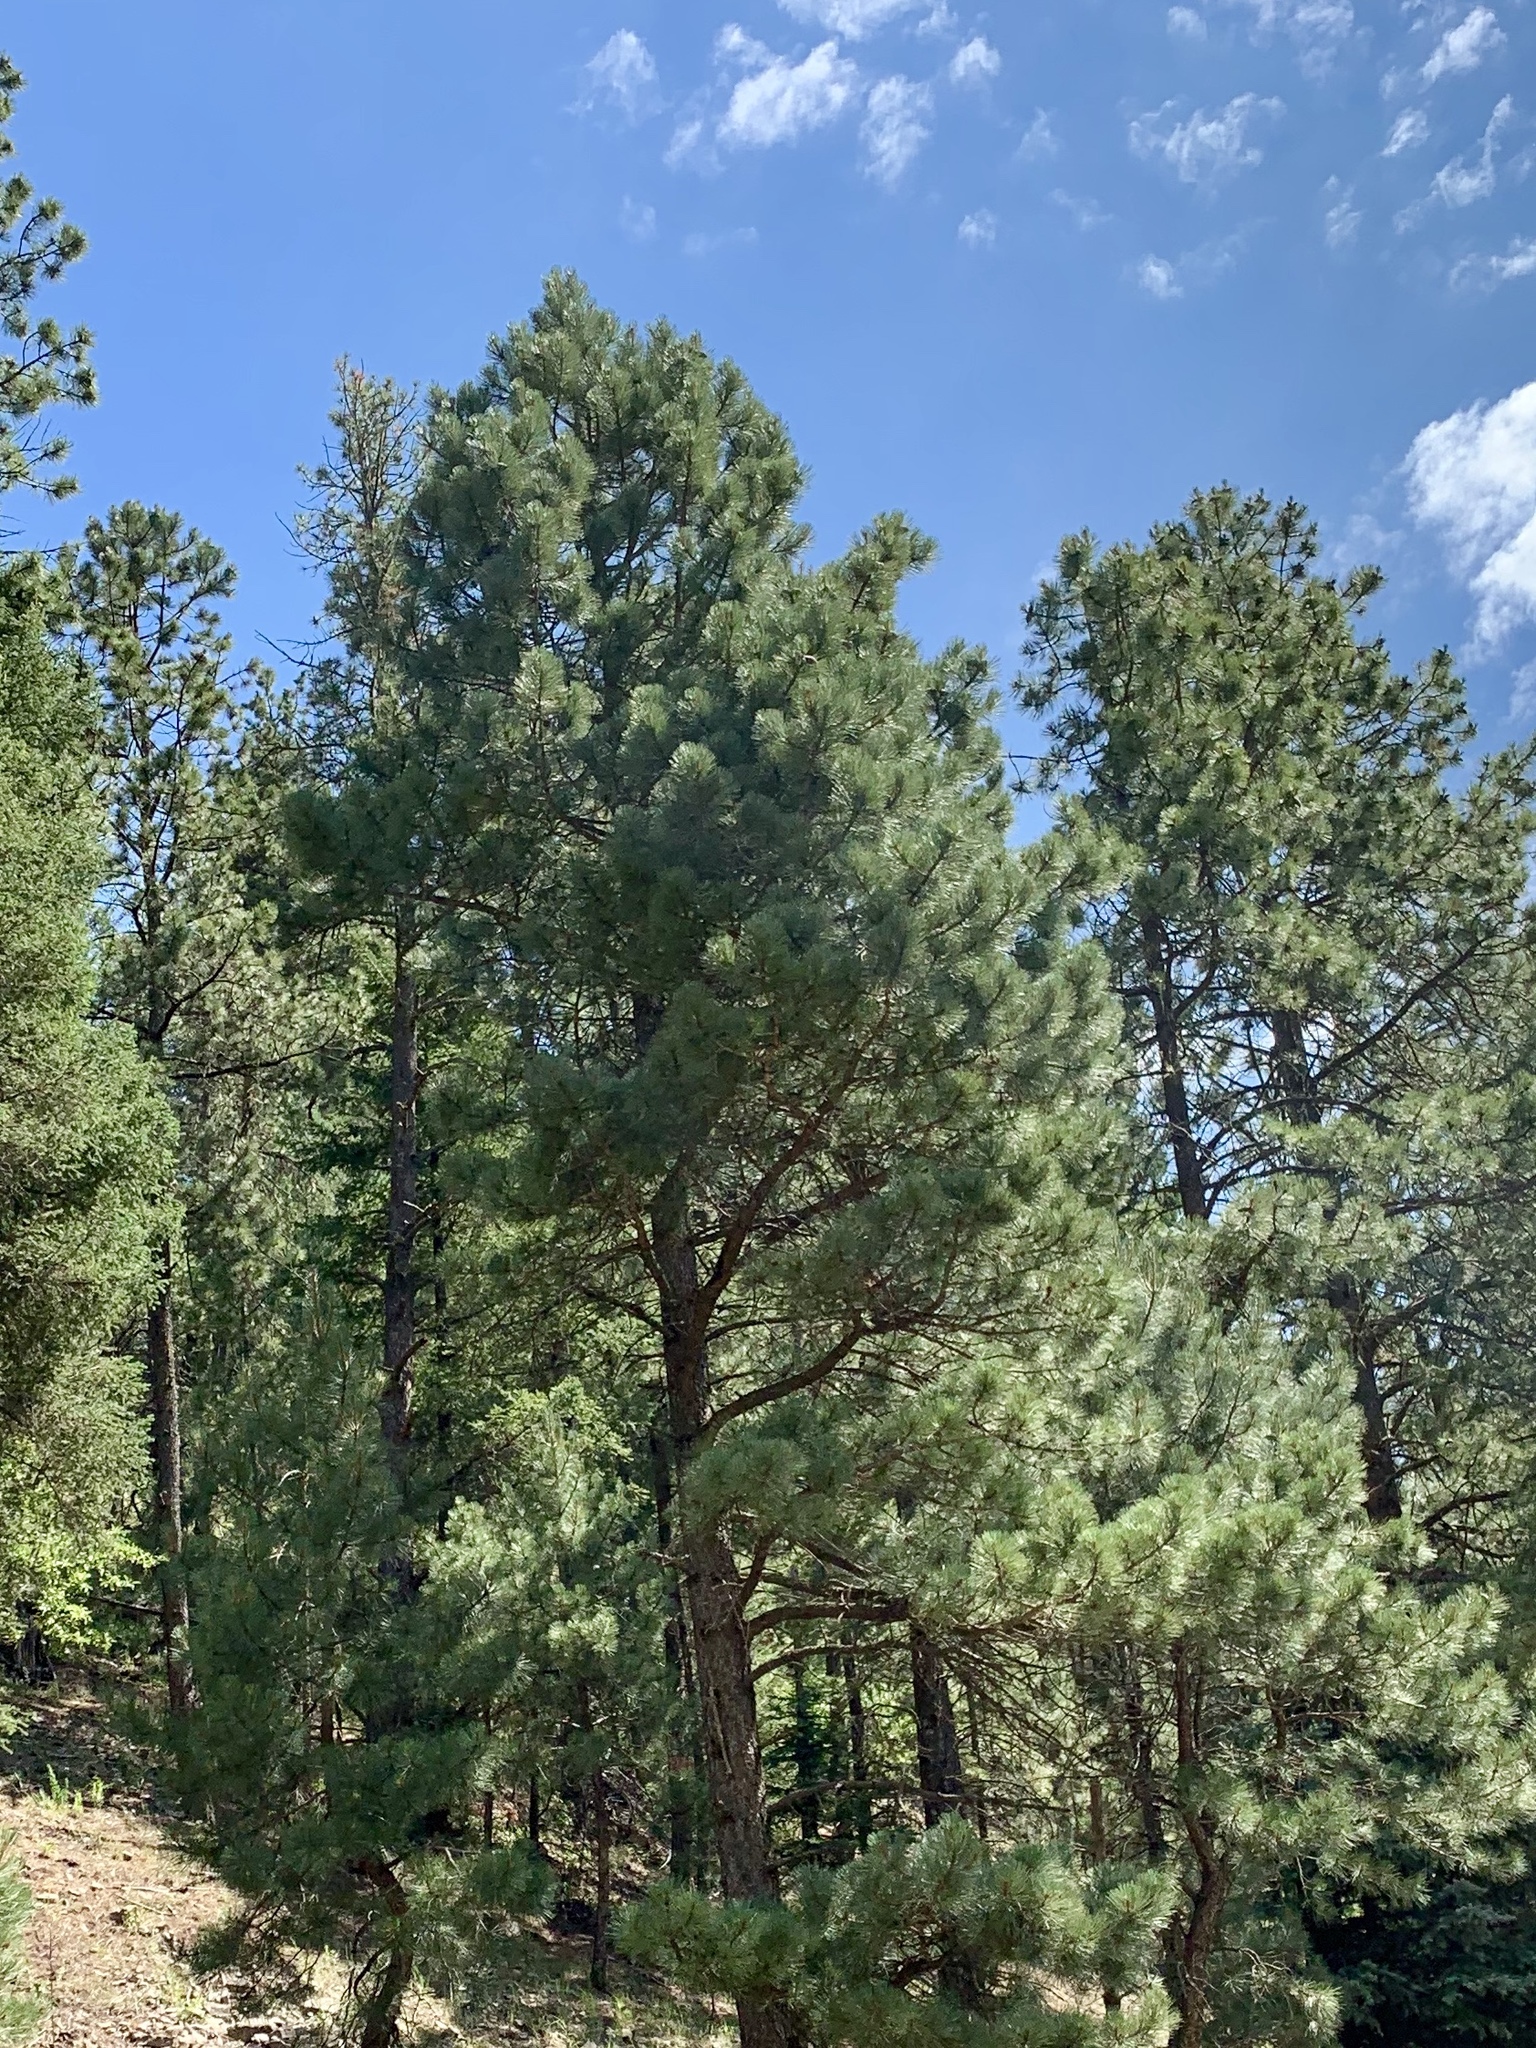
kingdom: Plantae
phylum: Tracheophyta
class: Pinopsida
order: Pinales
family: Pinaceae
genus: Pinus
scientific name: Pinus ponderosa
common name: Western yellow-pine
